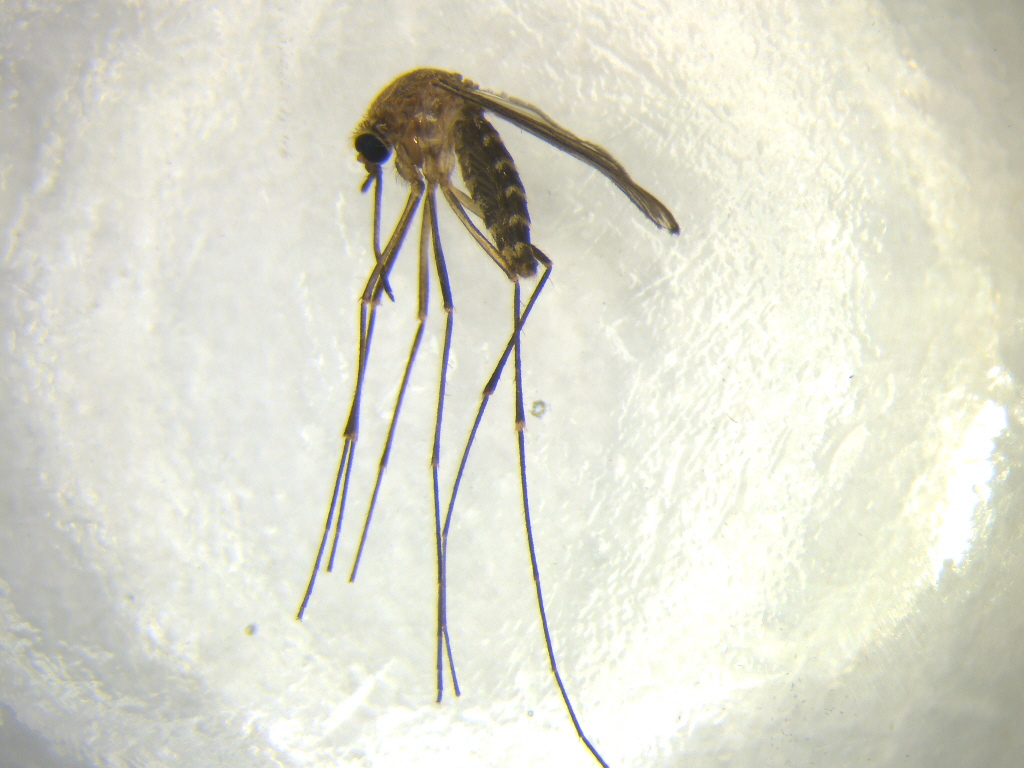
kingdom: Animalia
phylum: Arthropoda
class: Insecta
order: Diptera
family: Culicidae
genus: Culex
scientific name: Culex pervigilans
